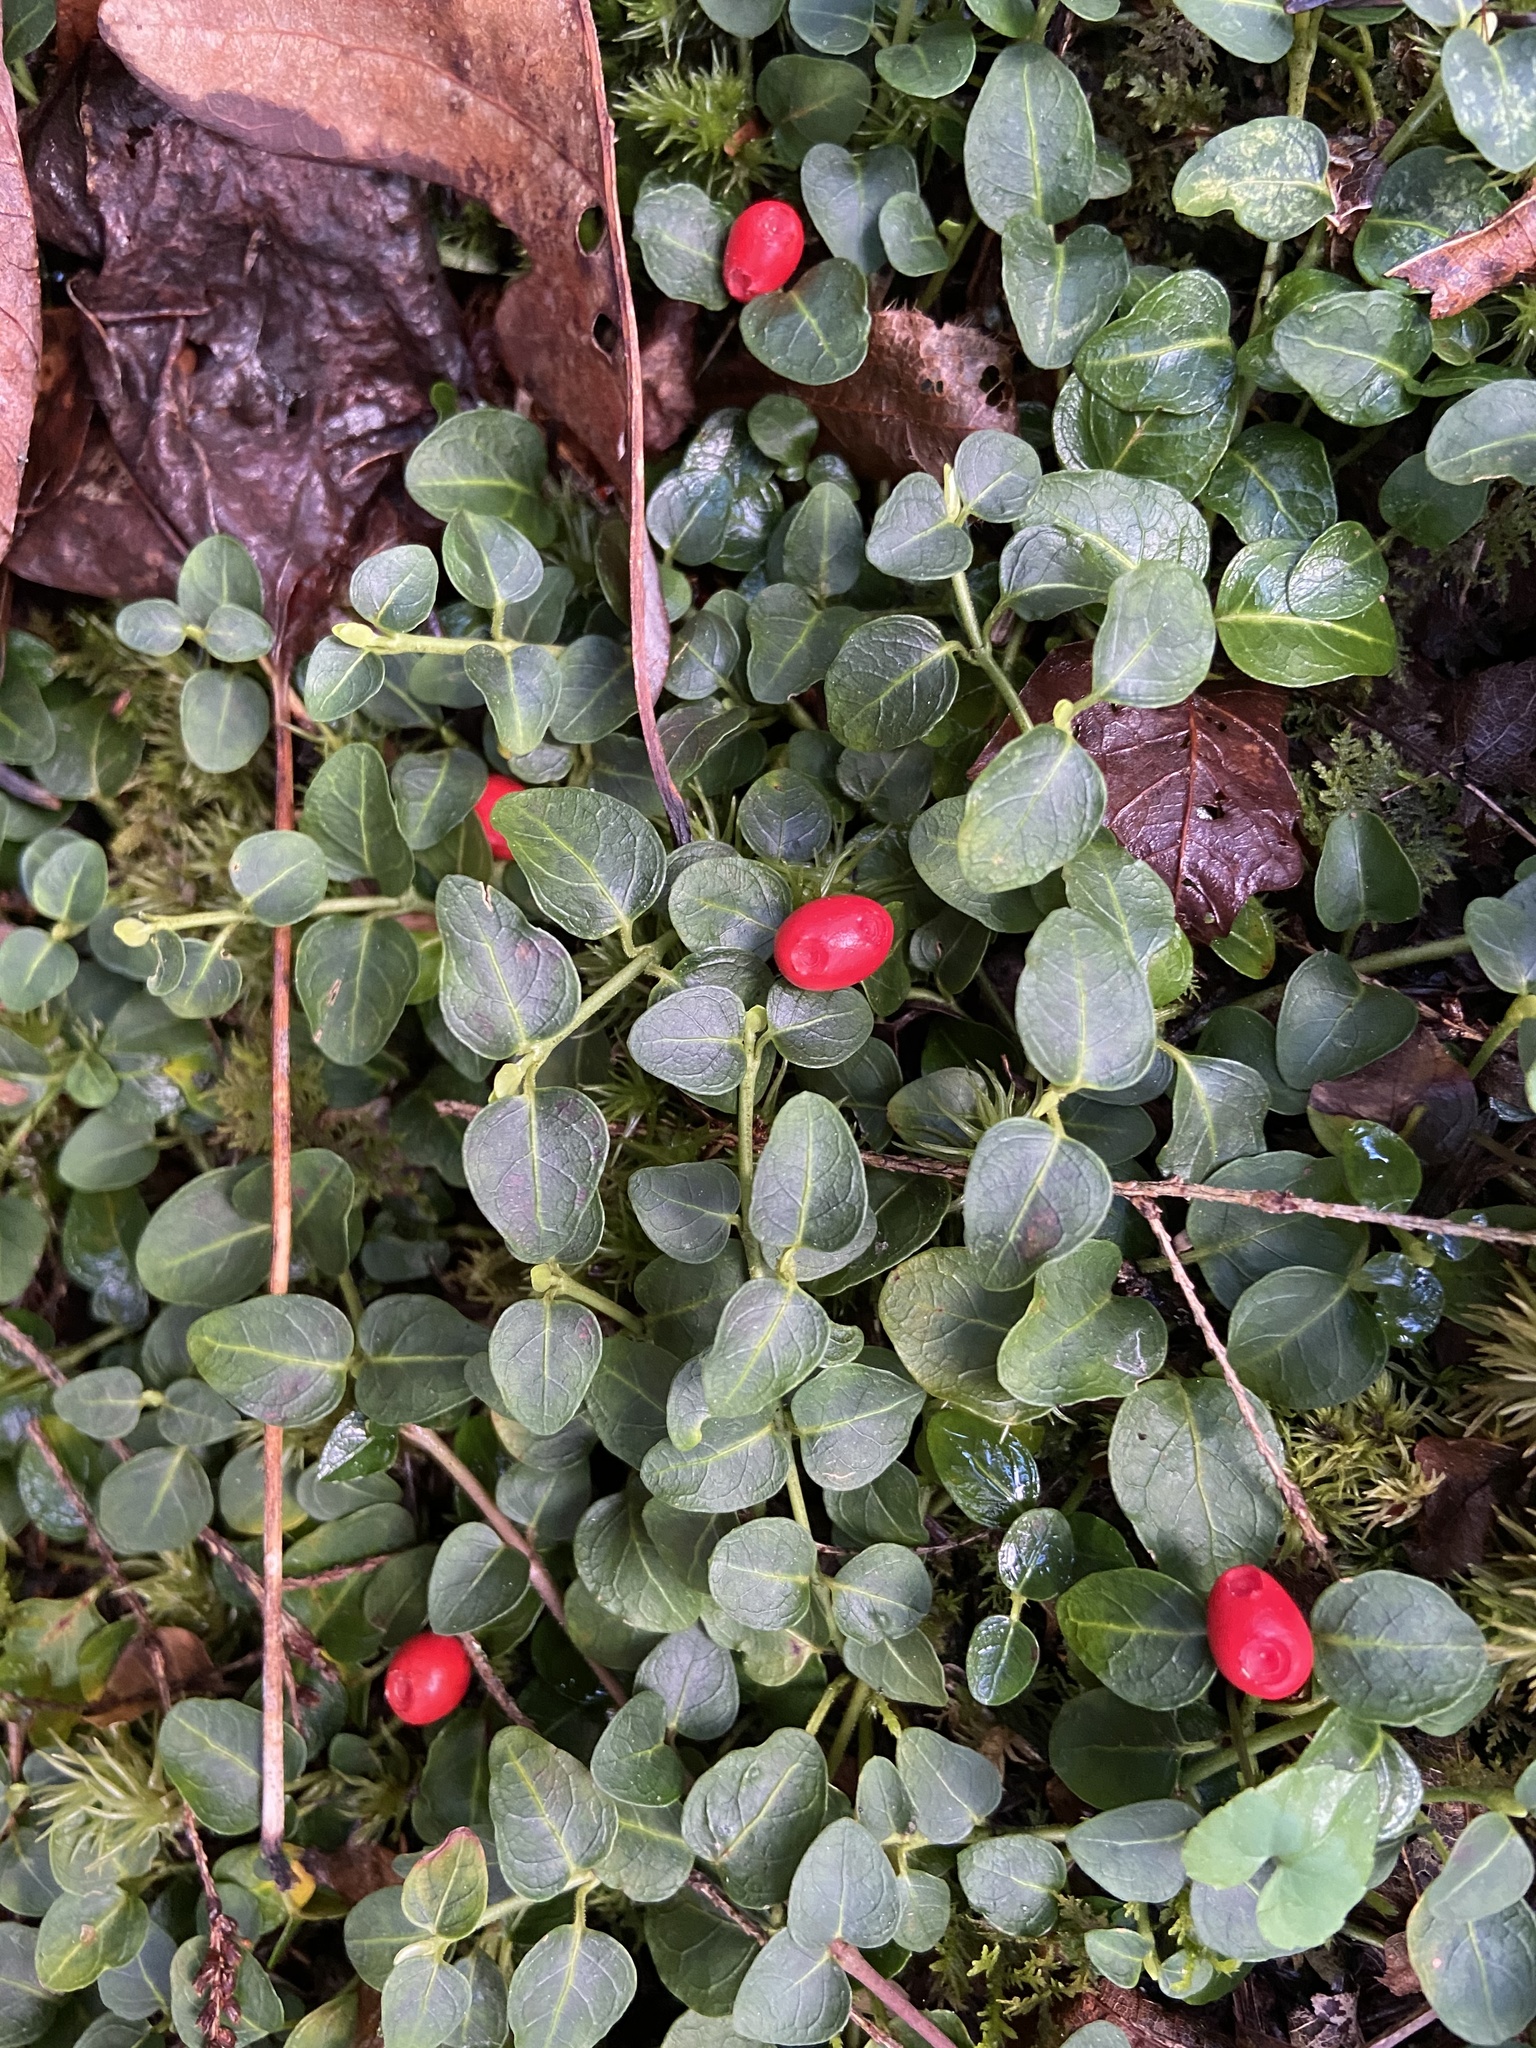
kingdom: Plantae
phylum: Tracheophyta
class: Magnoliopsida
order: Gentianales
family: Rubiaceae
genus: Mitchella
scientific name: Mitchella repens
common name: Partridge-berry
